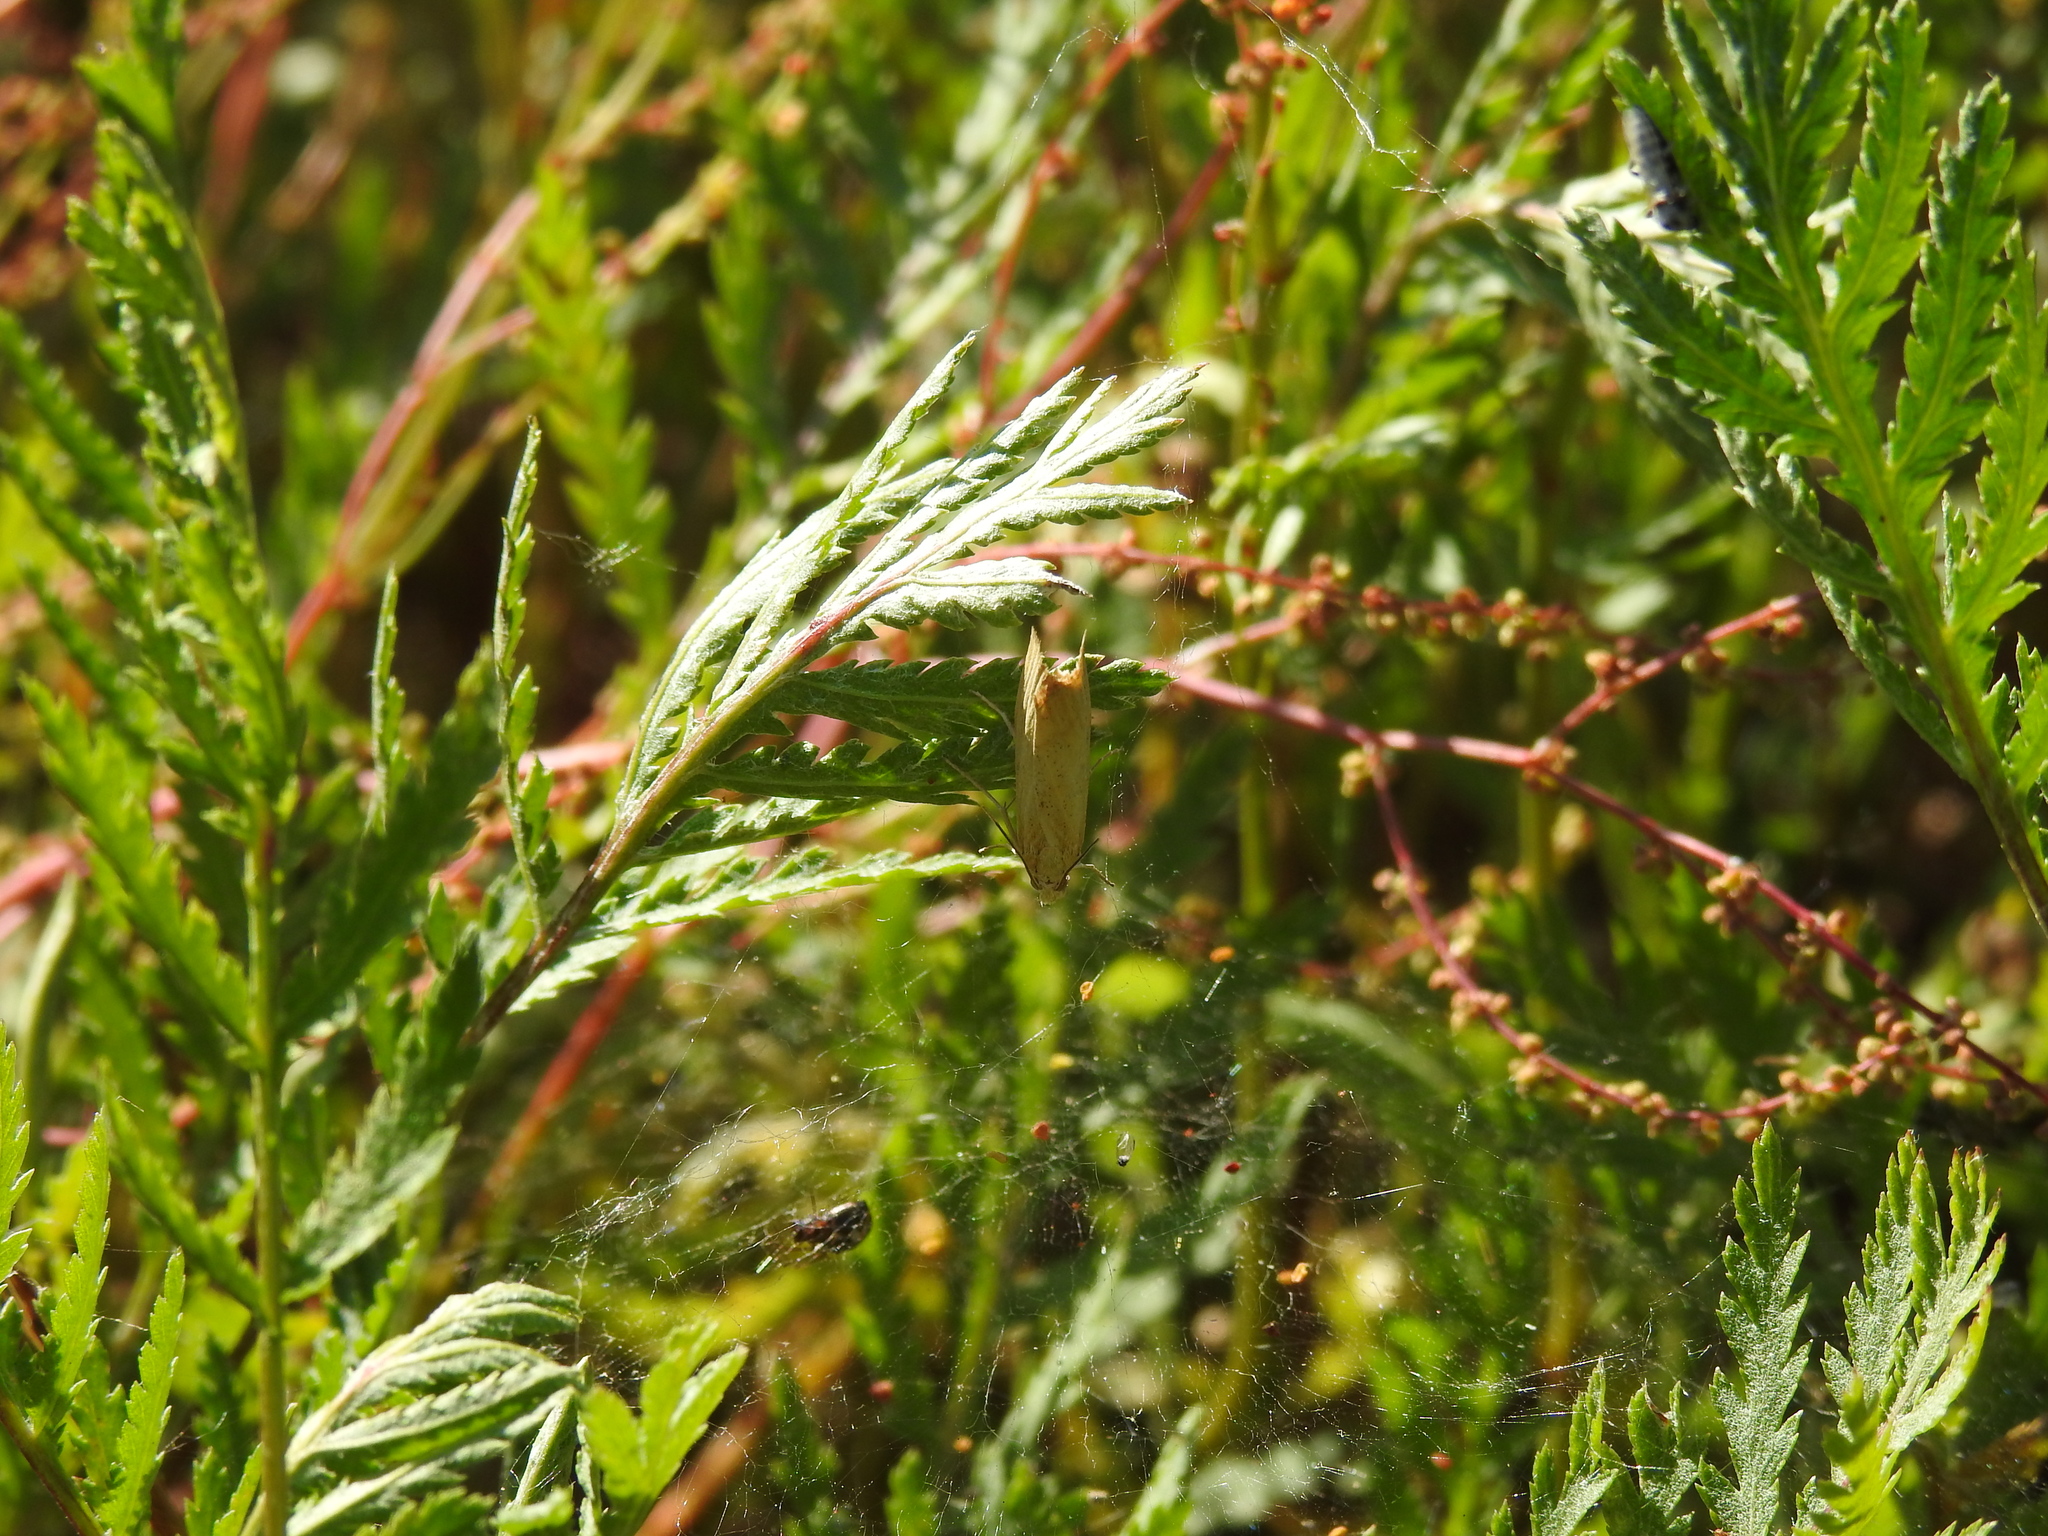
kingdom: Animalia
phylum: Arthropoda
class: Insecta
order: Lepidoptera
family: Crambidae
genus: Chrysoteuchia
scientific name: Chrysoteuchia culmella
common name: Garden grass-veneer
